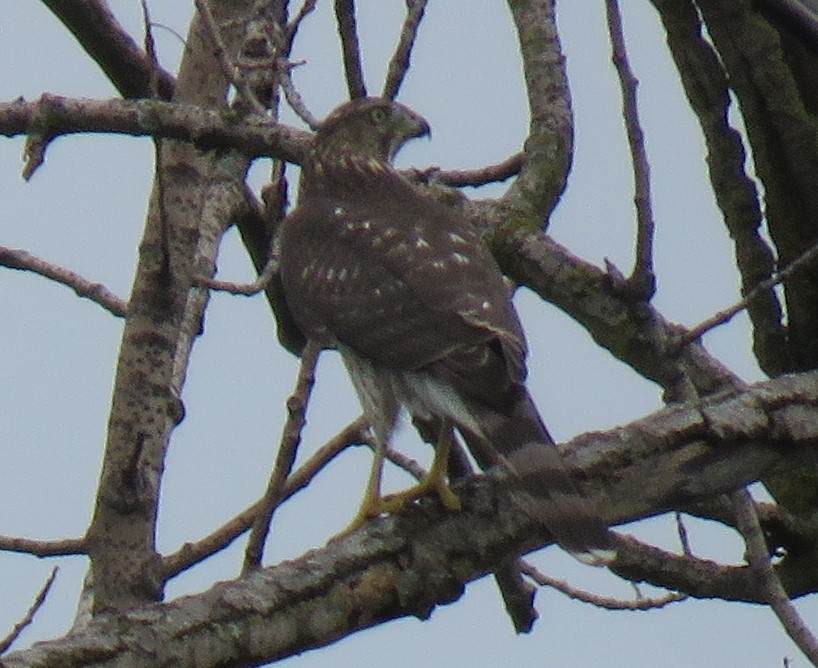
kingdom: Animalia
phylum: Chordata
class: Aves
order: Accipitriformes
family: Accipitridae
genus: Accipiter
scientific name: Accipiter cooperii
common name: Cooper's hawk
